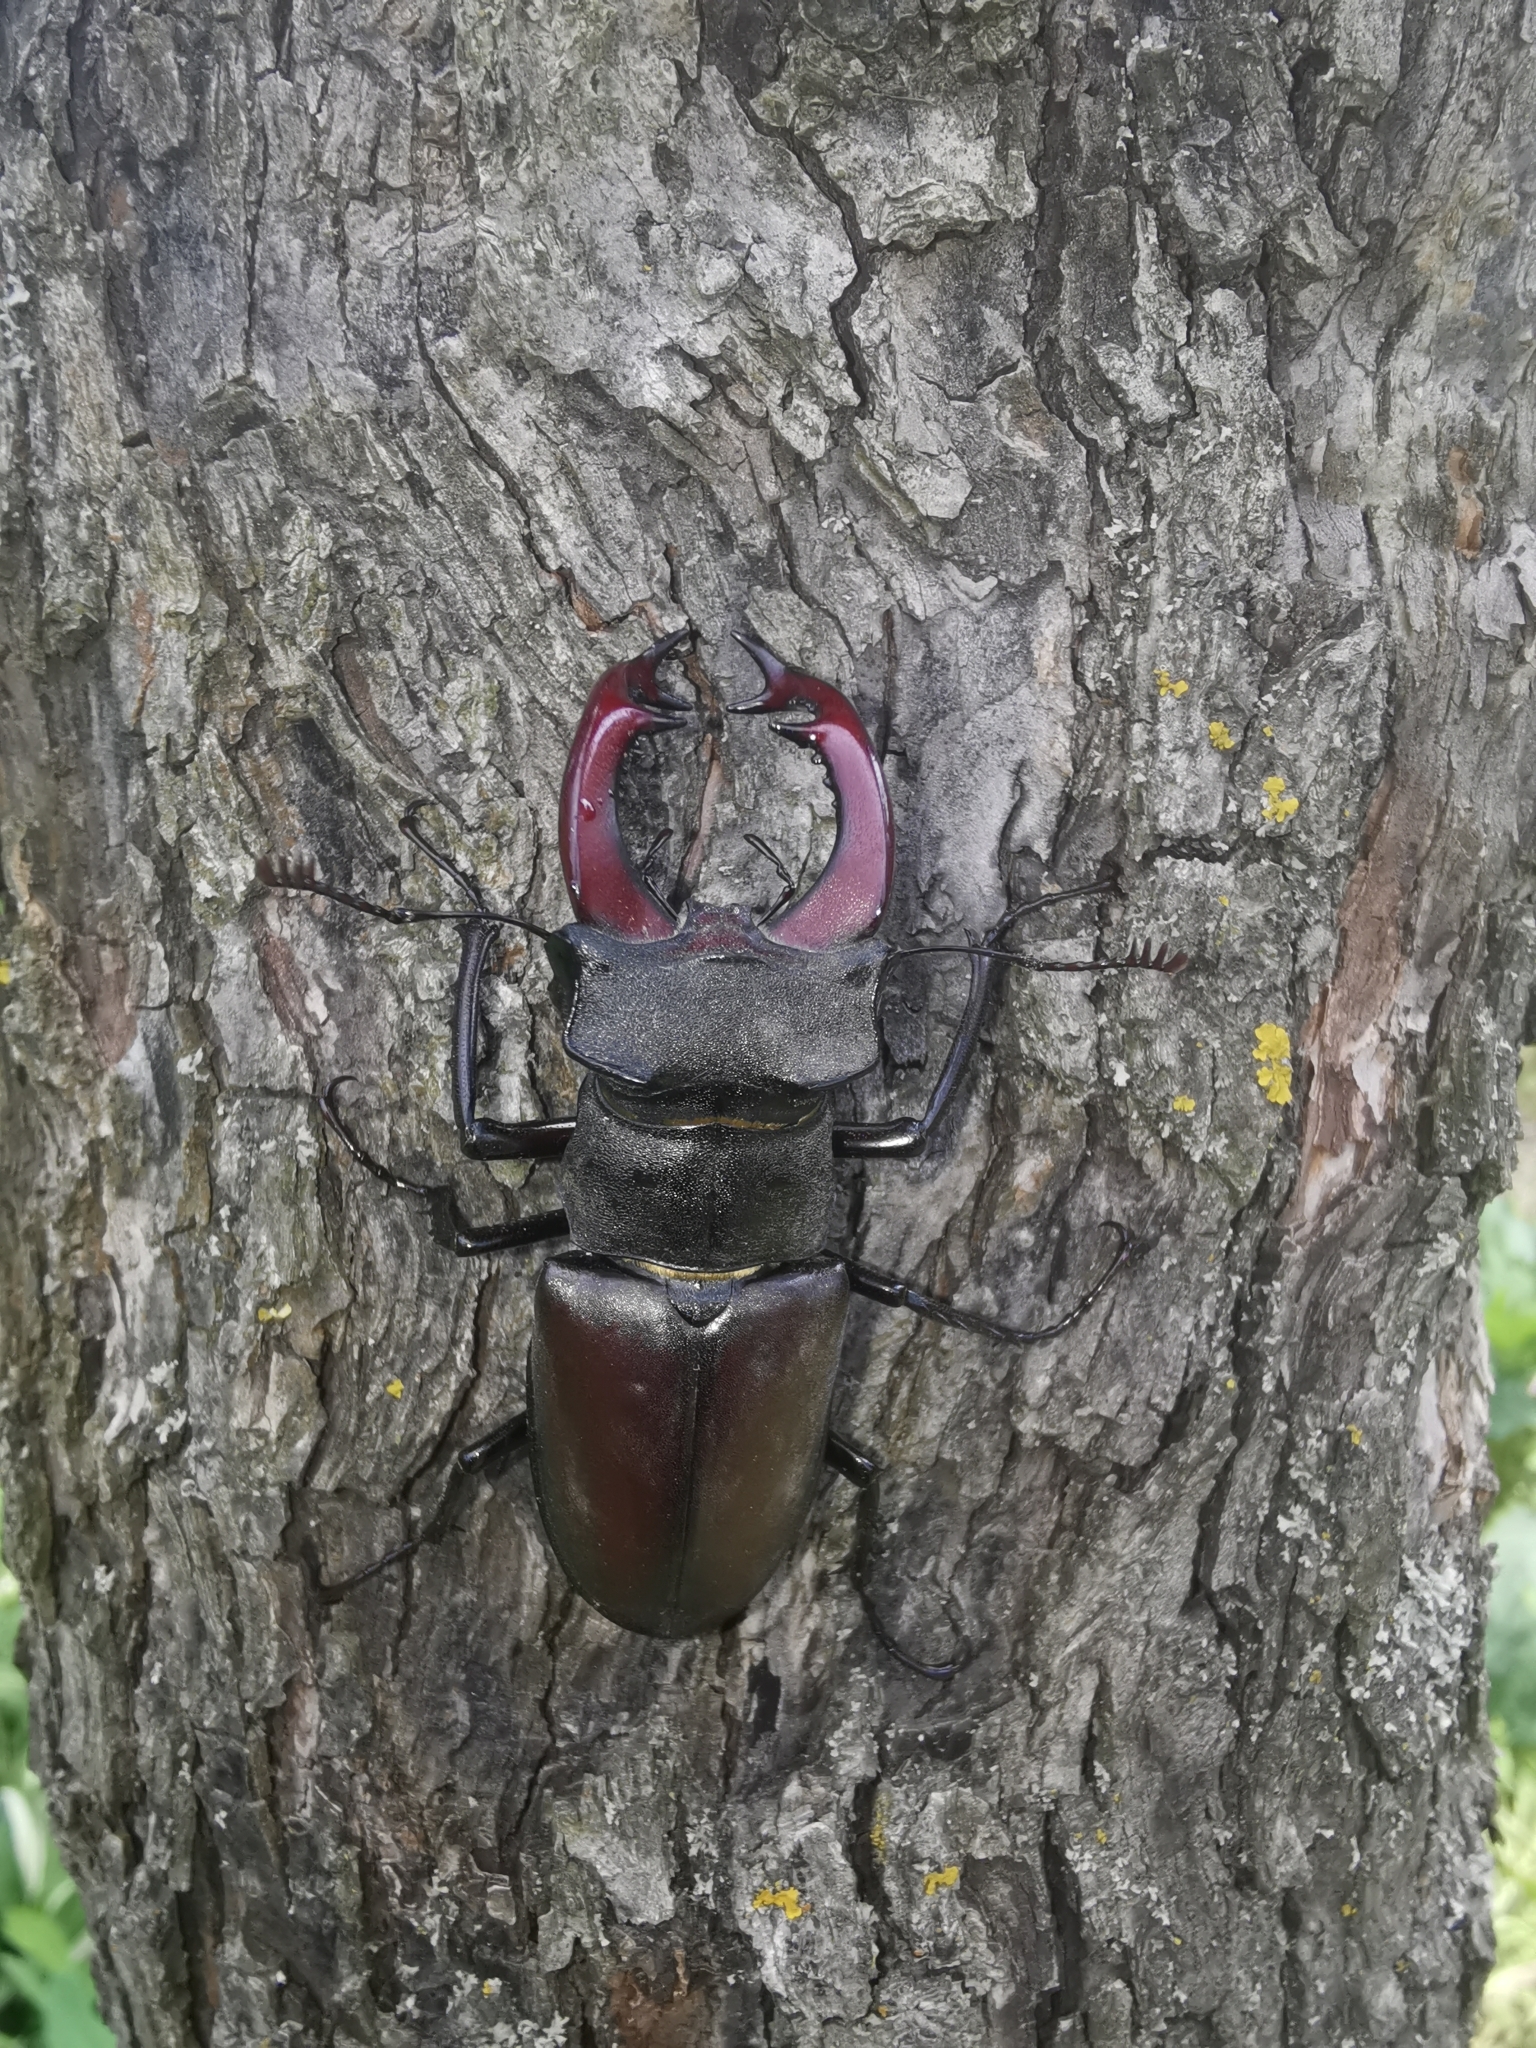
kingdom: Animalia
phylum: Arthropoda
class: Insecta
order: Coleoptera
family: Lucanidae
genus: Lucanus
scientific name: Lucanus cervus
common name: Stag beetle
